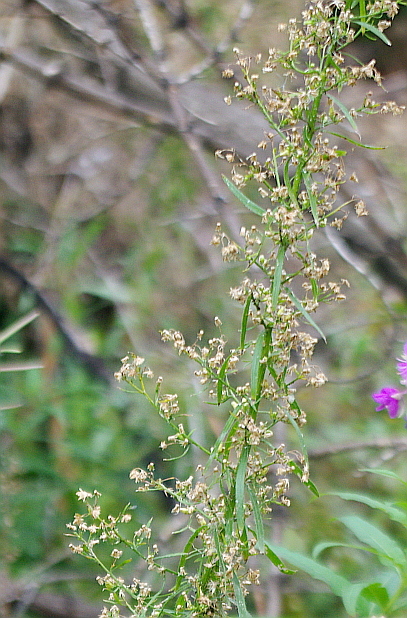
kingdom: Plantae
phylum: Tracheophyta
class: Magnoliopsida
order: Asterales
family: Asteraceae
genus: Erigeron
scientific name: Erigeron canadensis
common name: Canadian fleabane
